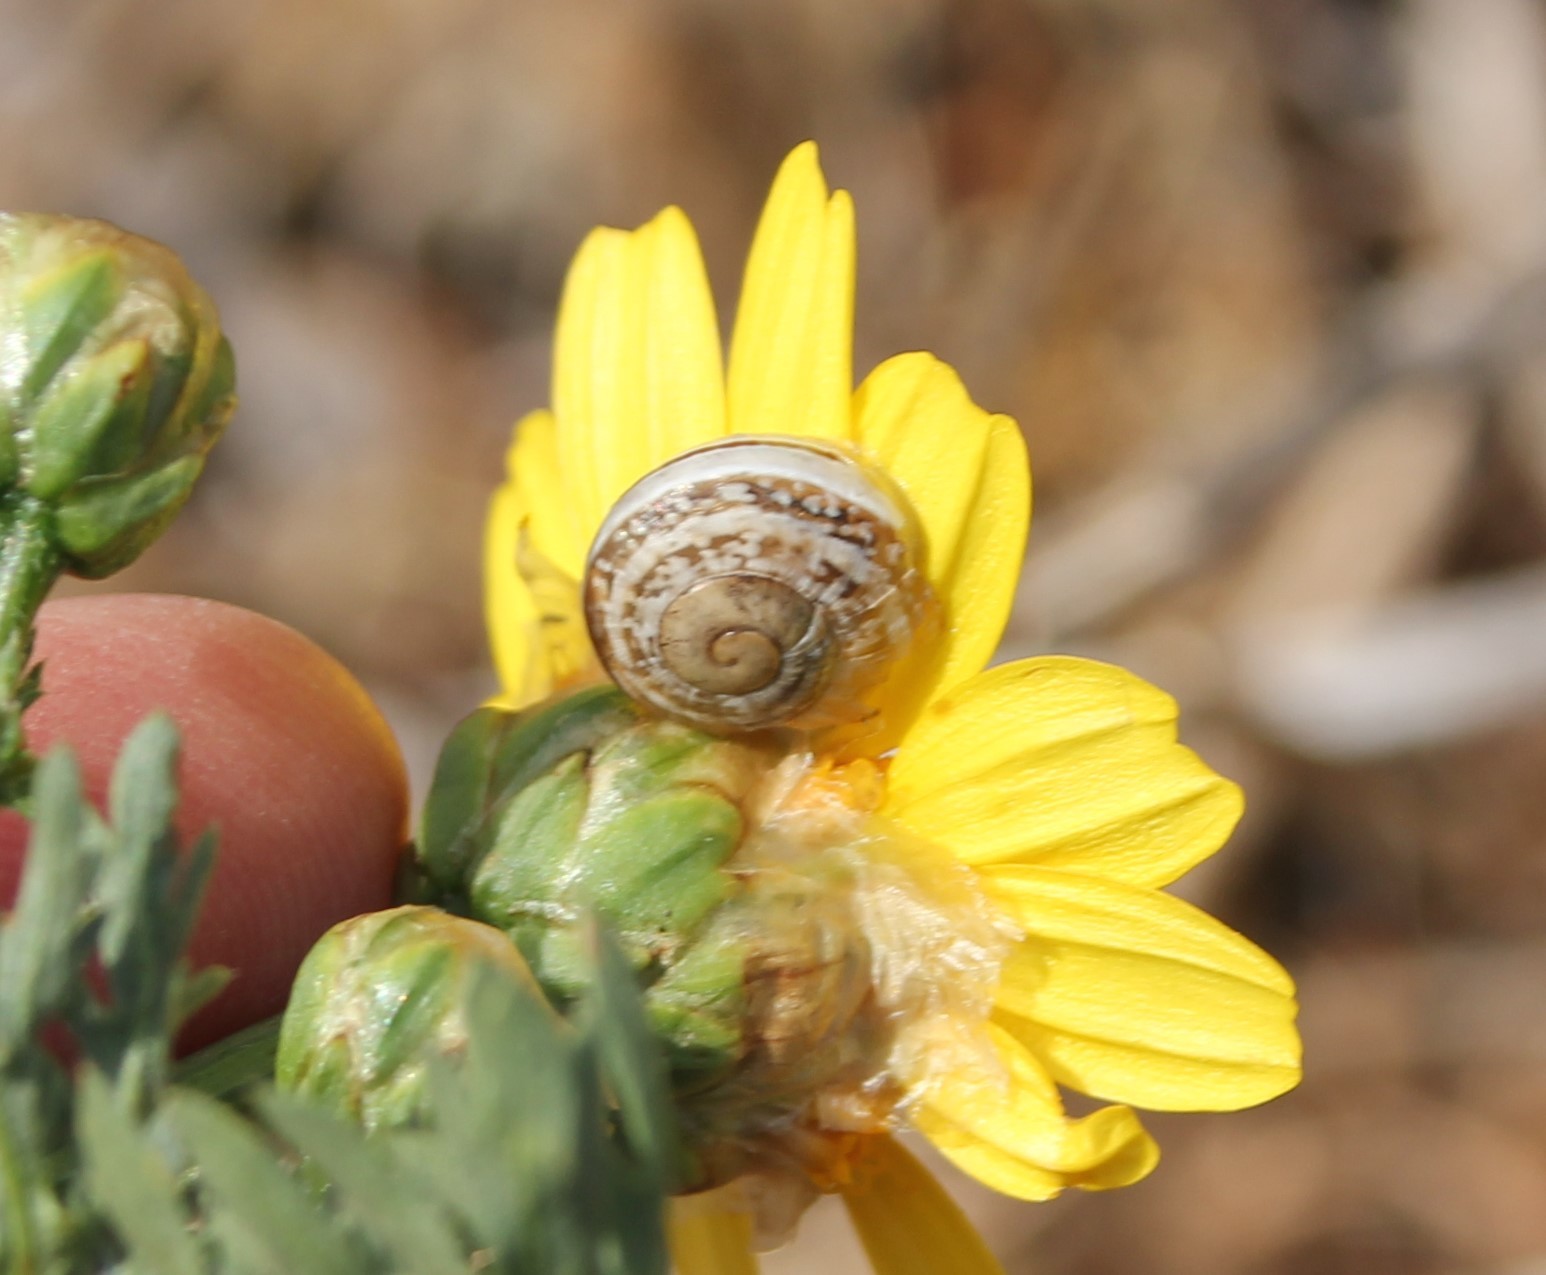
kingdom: Animalia
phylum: Mollusca
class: Gastropoda
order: Stylommatophora
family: Helicidae
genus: Otala
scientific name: Otala lactea
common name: Milk snail
